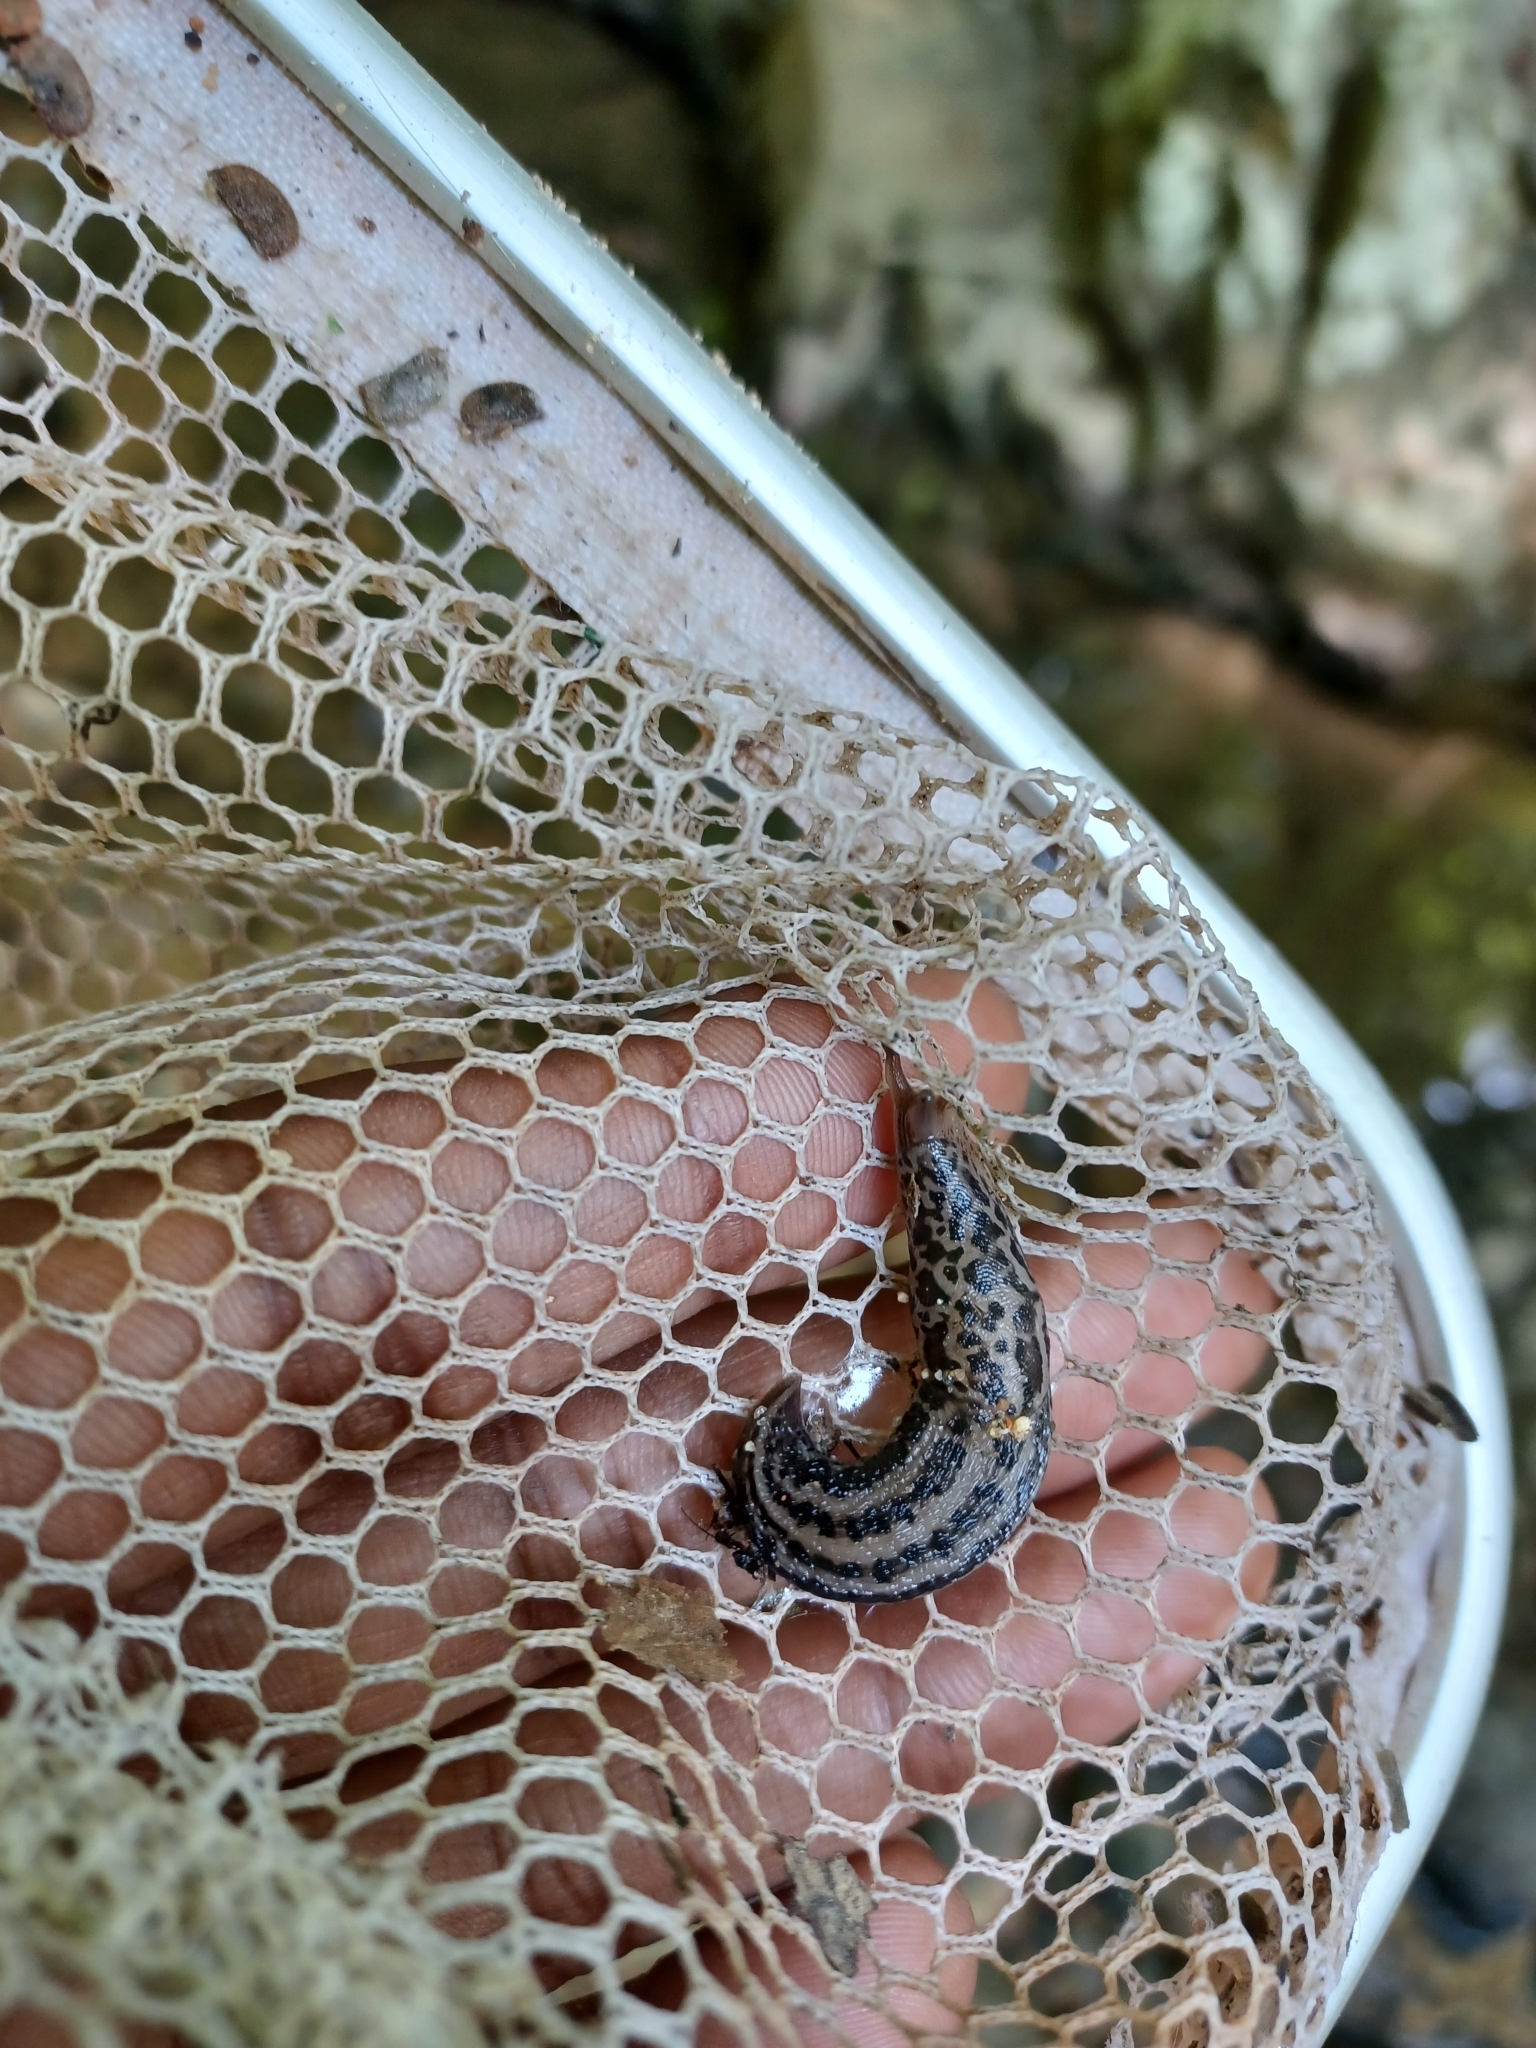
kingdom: Animalia
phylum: Mollusca
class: Gastropoda
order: Stylommatophora
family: Limacidae
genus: Limax
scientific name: Limax maximus
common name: Great grey slug
